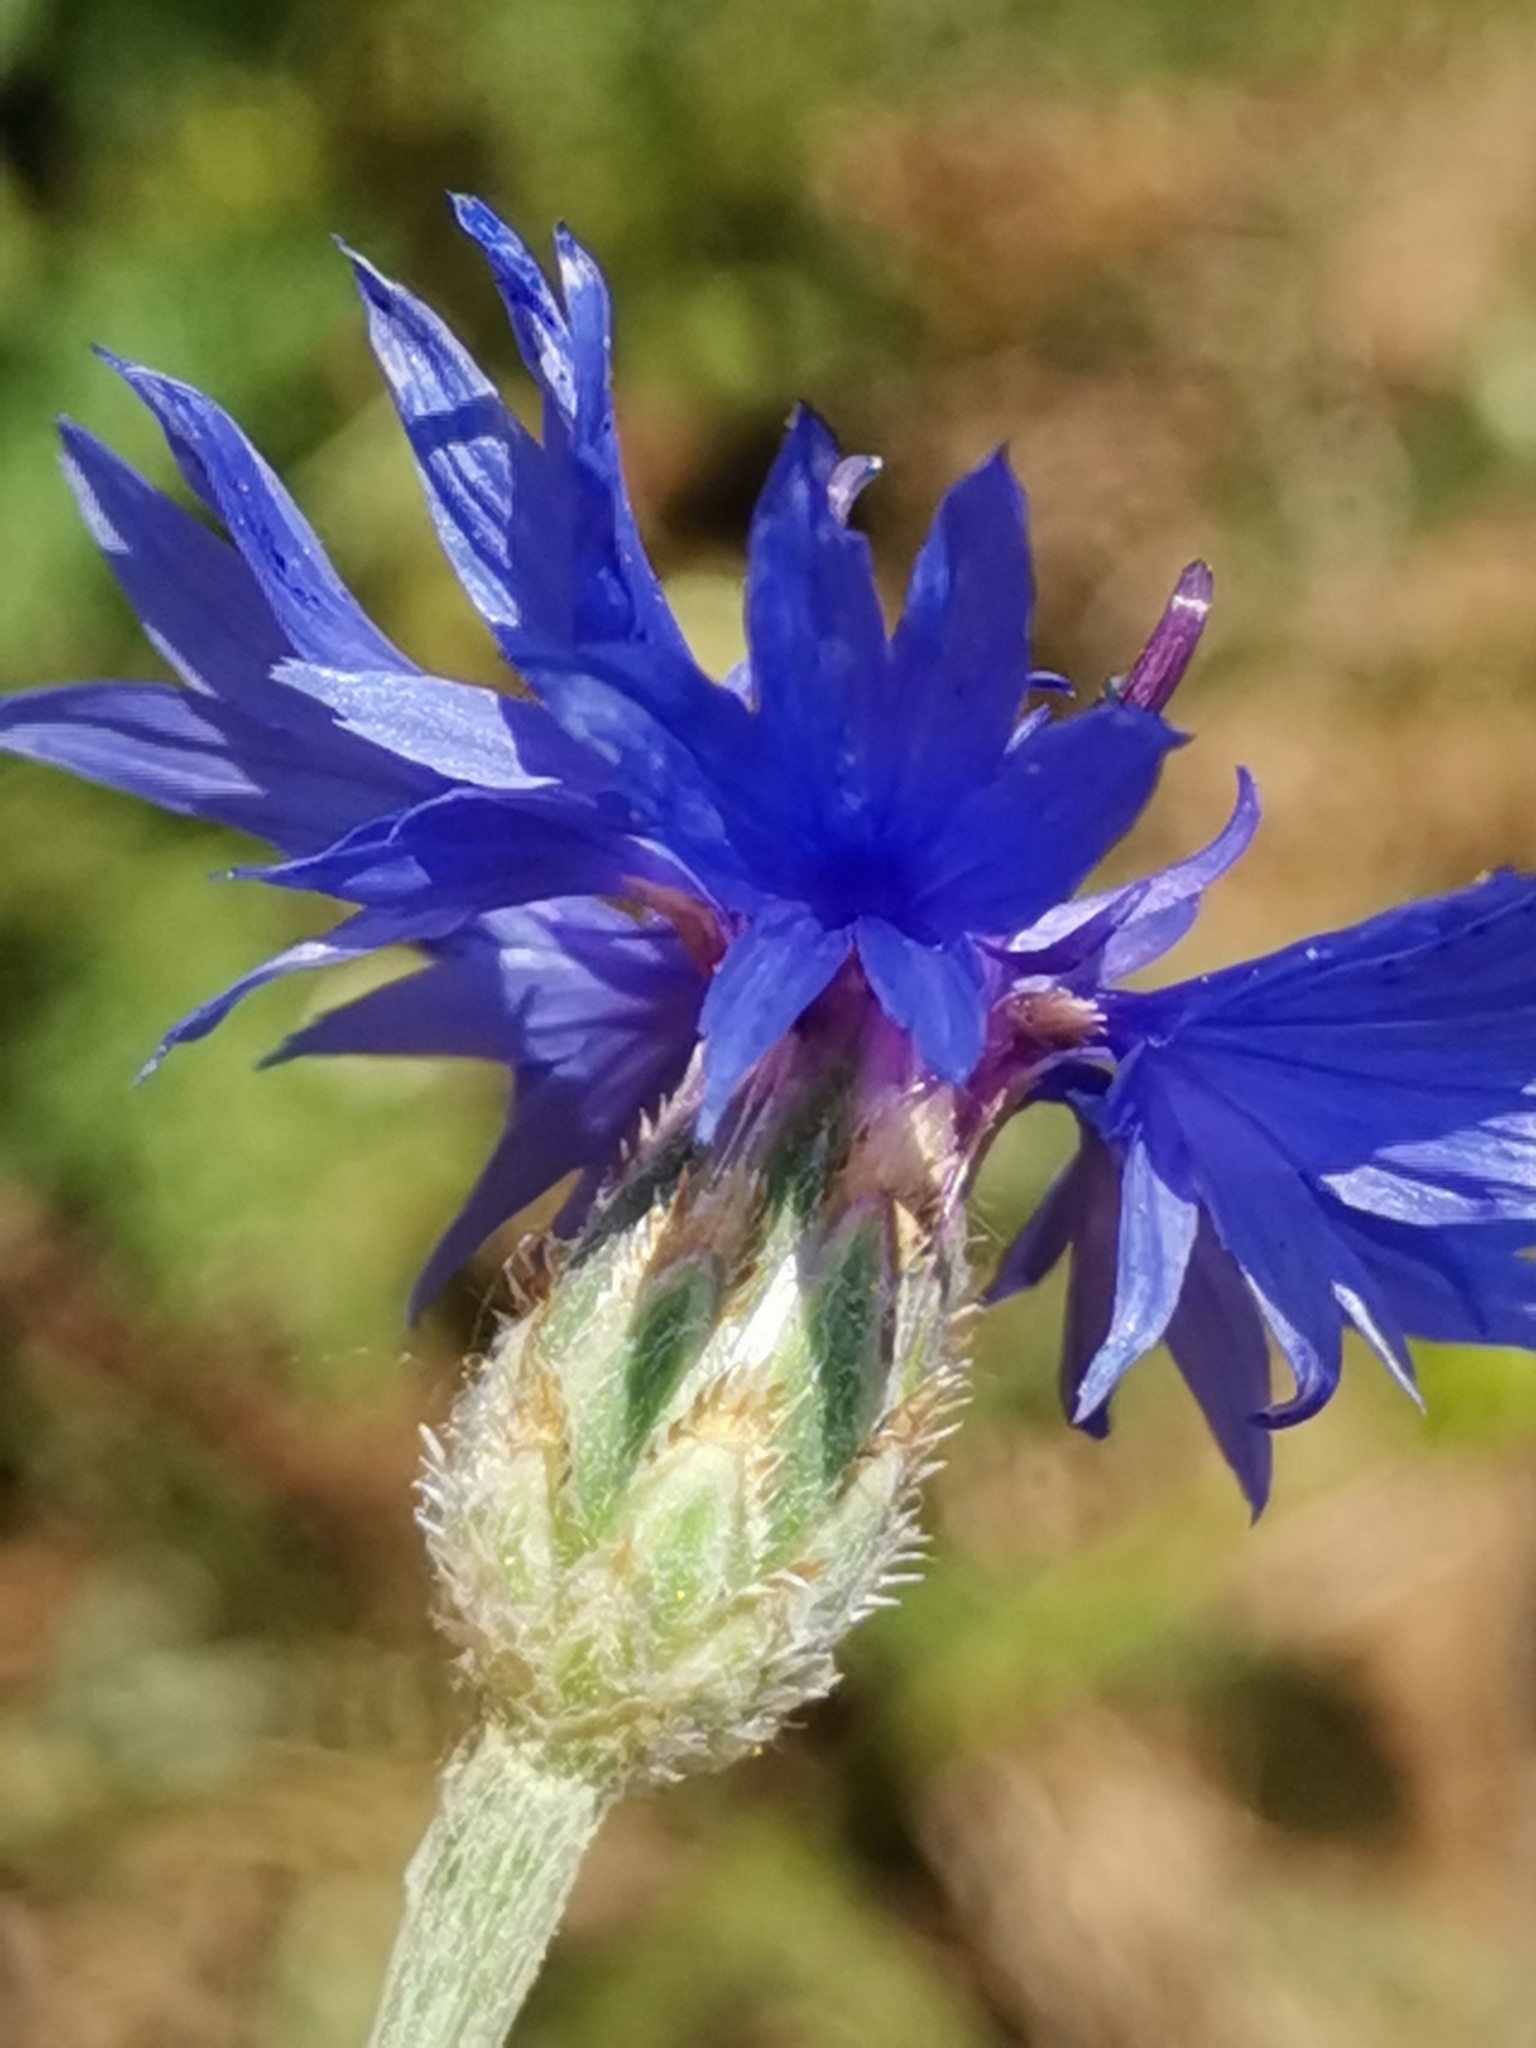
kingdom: Plantae
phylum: Tracheophyta
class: Magnoliopsida
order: Asterales
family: Asteraceae
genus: Centaurea
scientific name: Centaurea cyanus
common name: Cornflower
